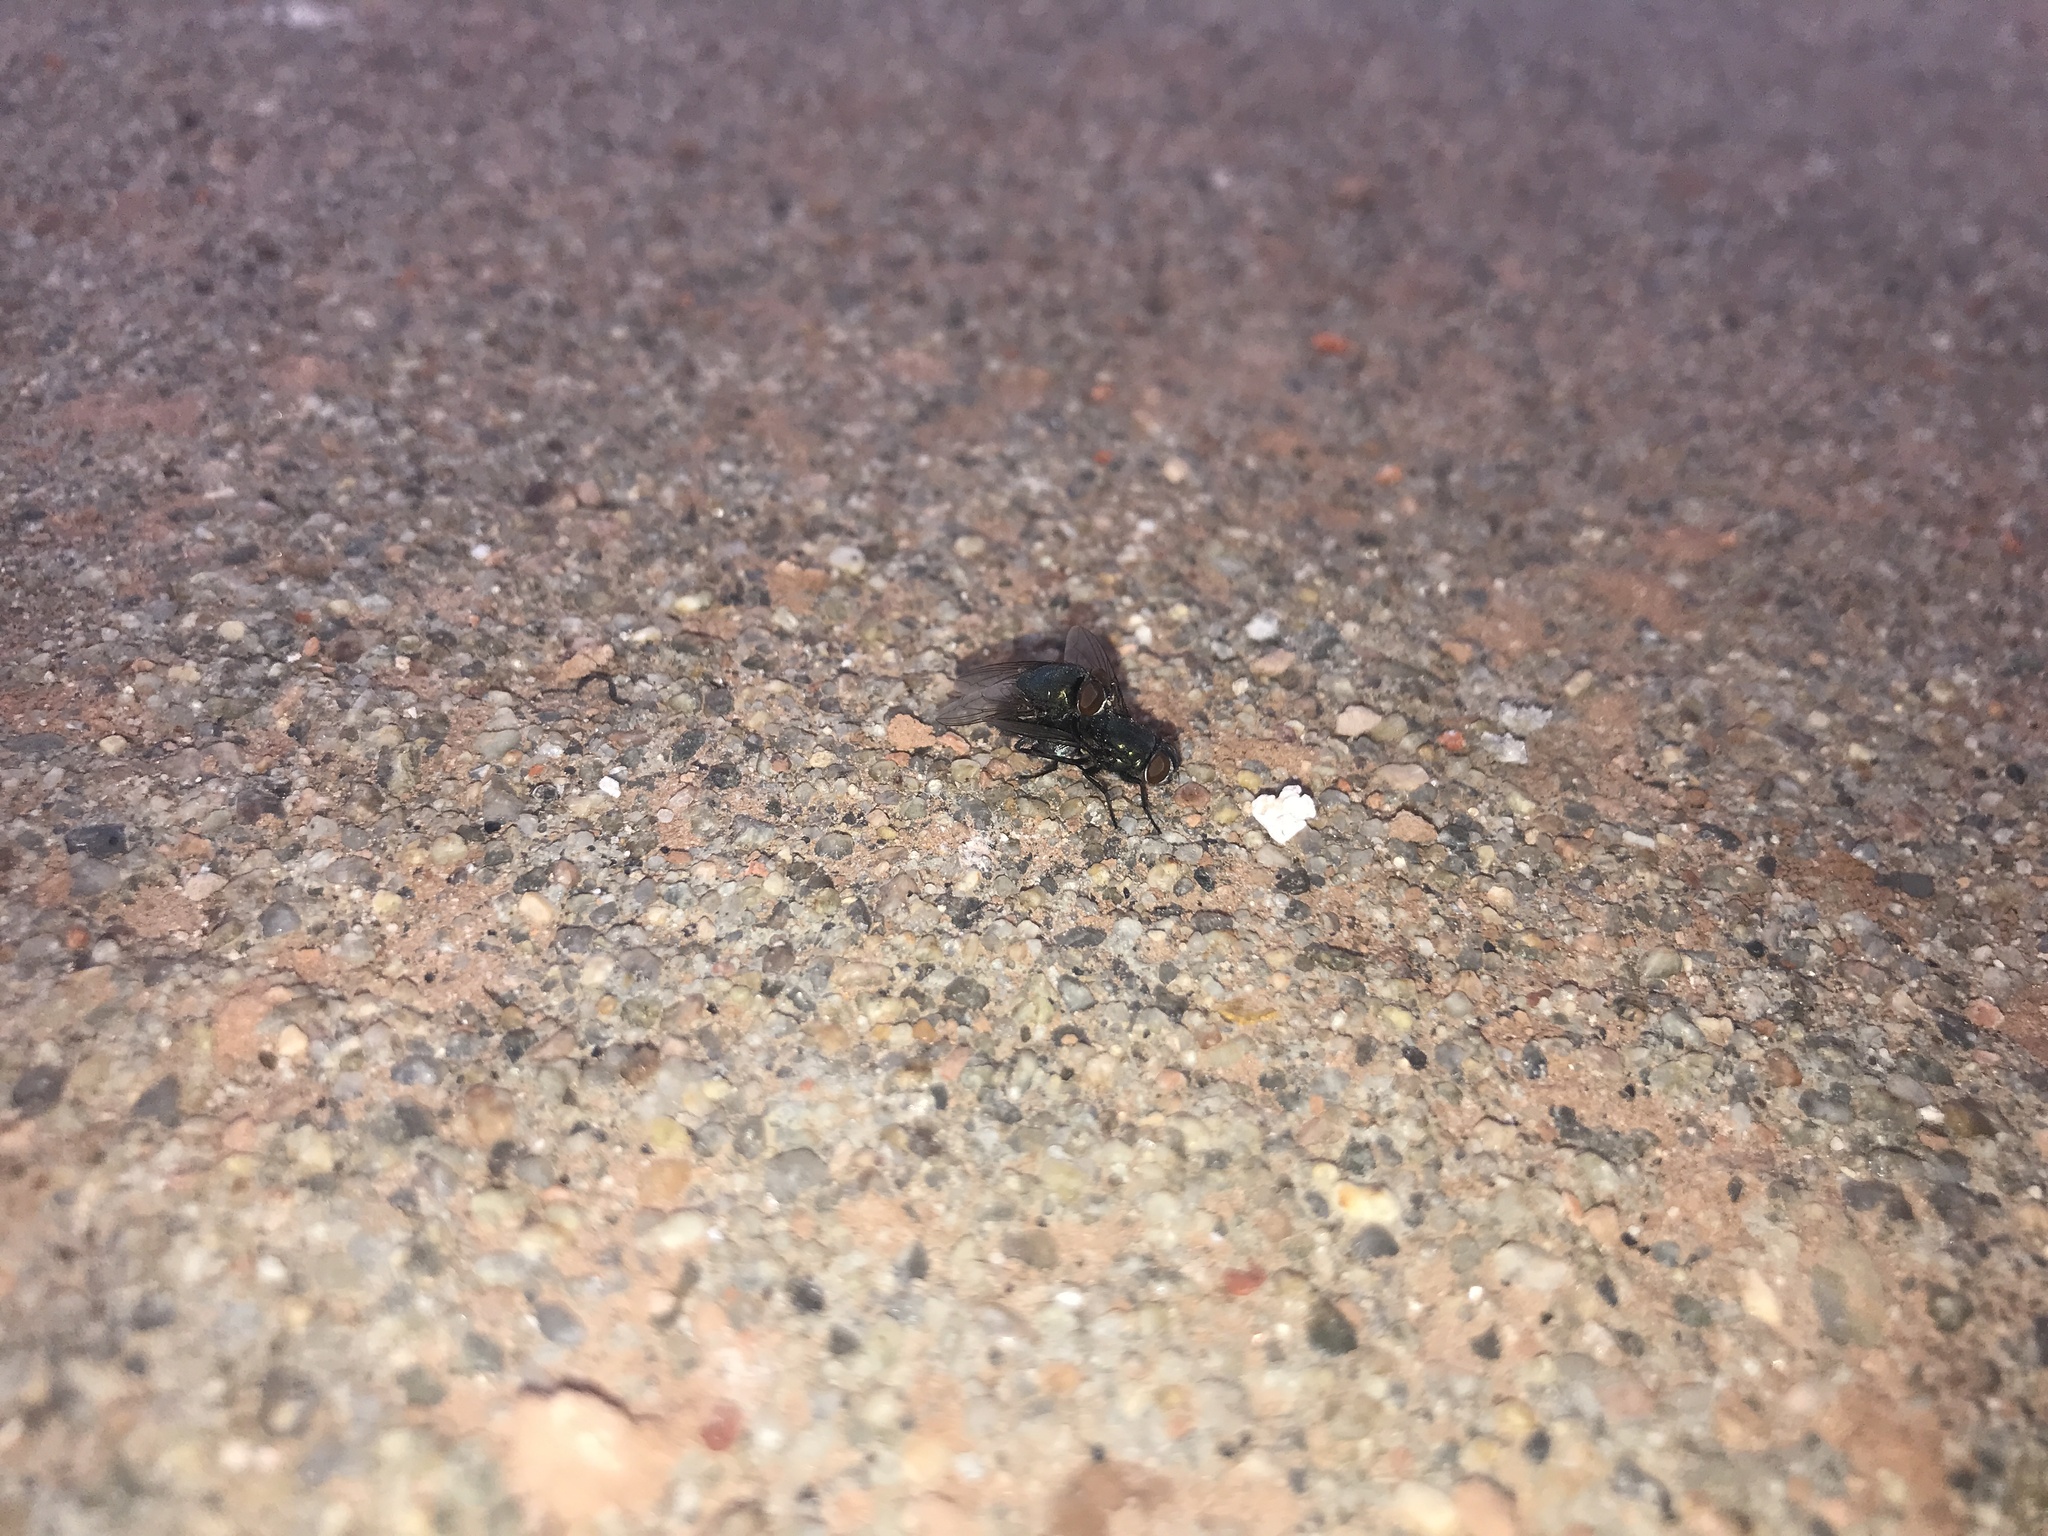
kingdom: Animalia
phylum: Arthropoda
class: Insecta
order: Diptera
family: Calliphoridae
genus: Phormia
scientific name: Phormia regina
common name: Black blow fly
